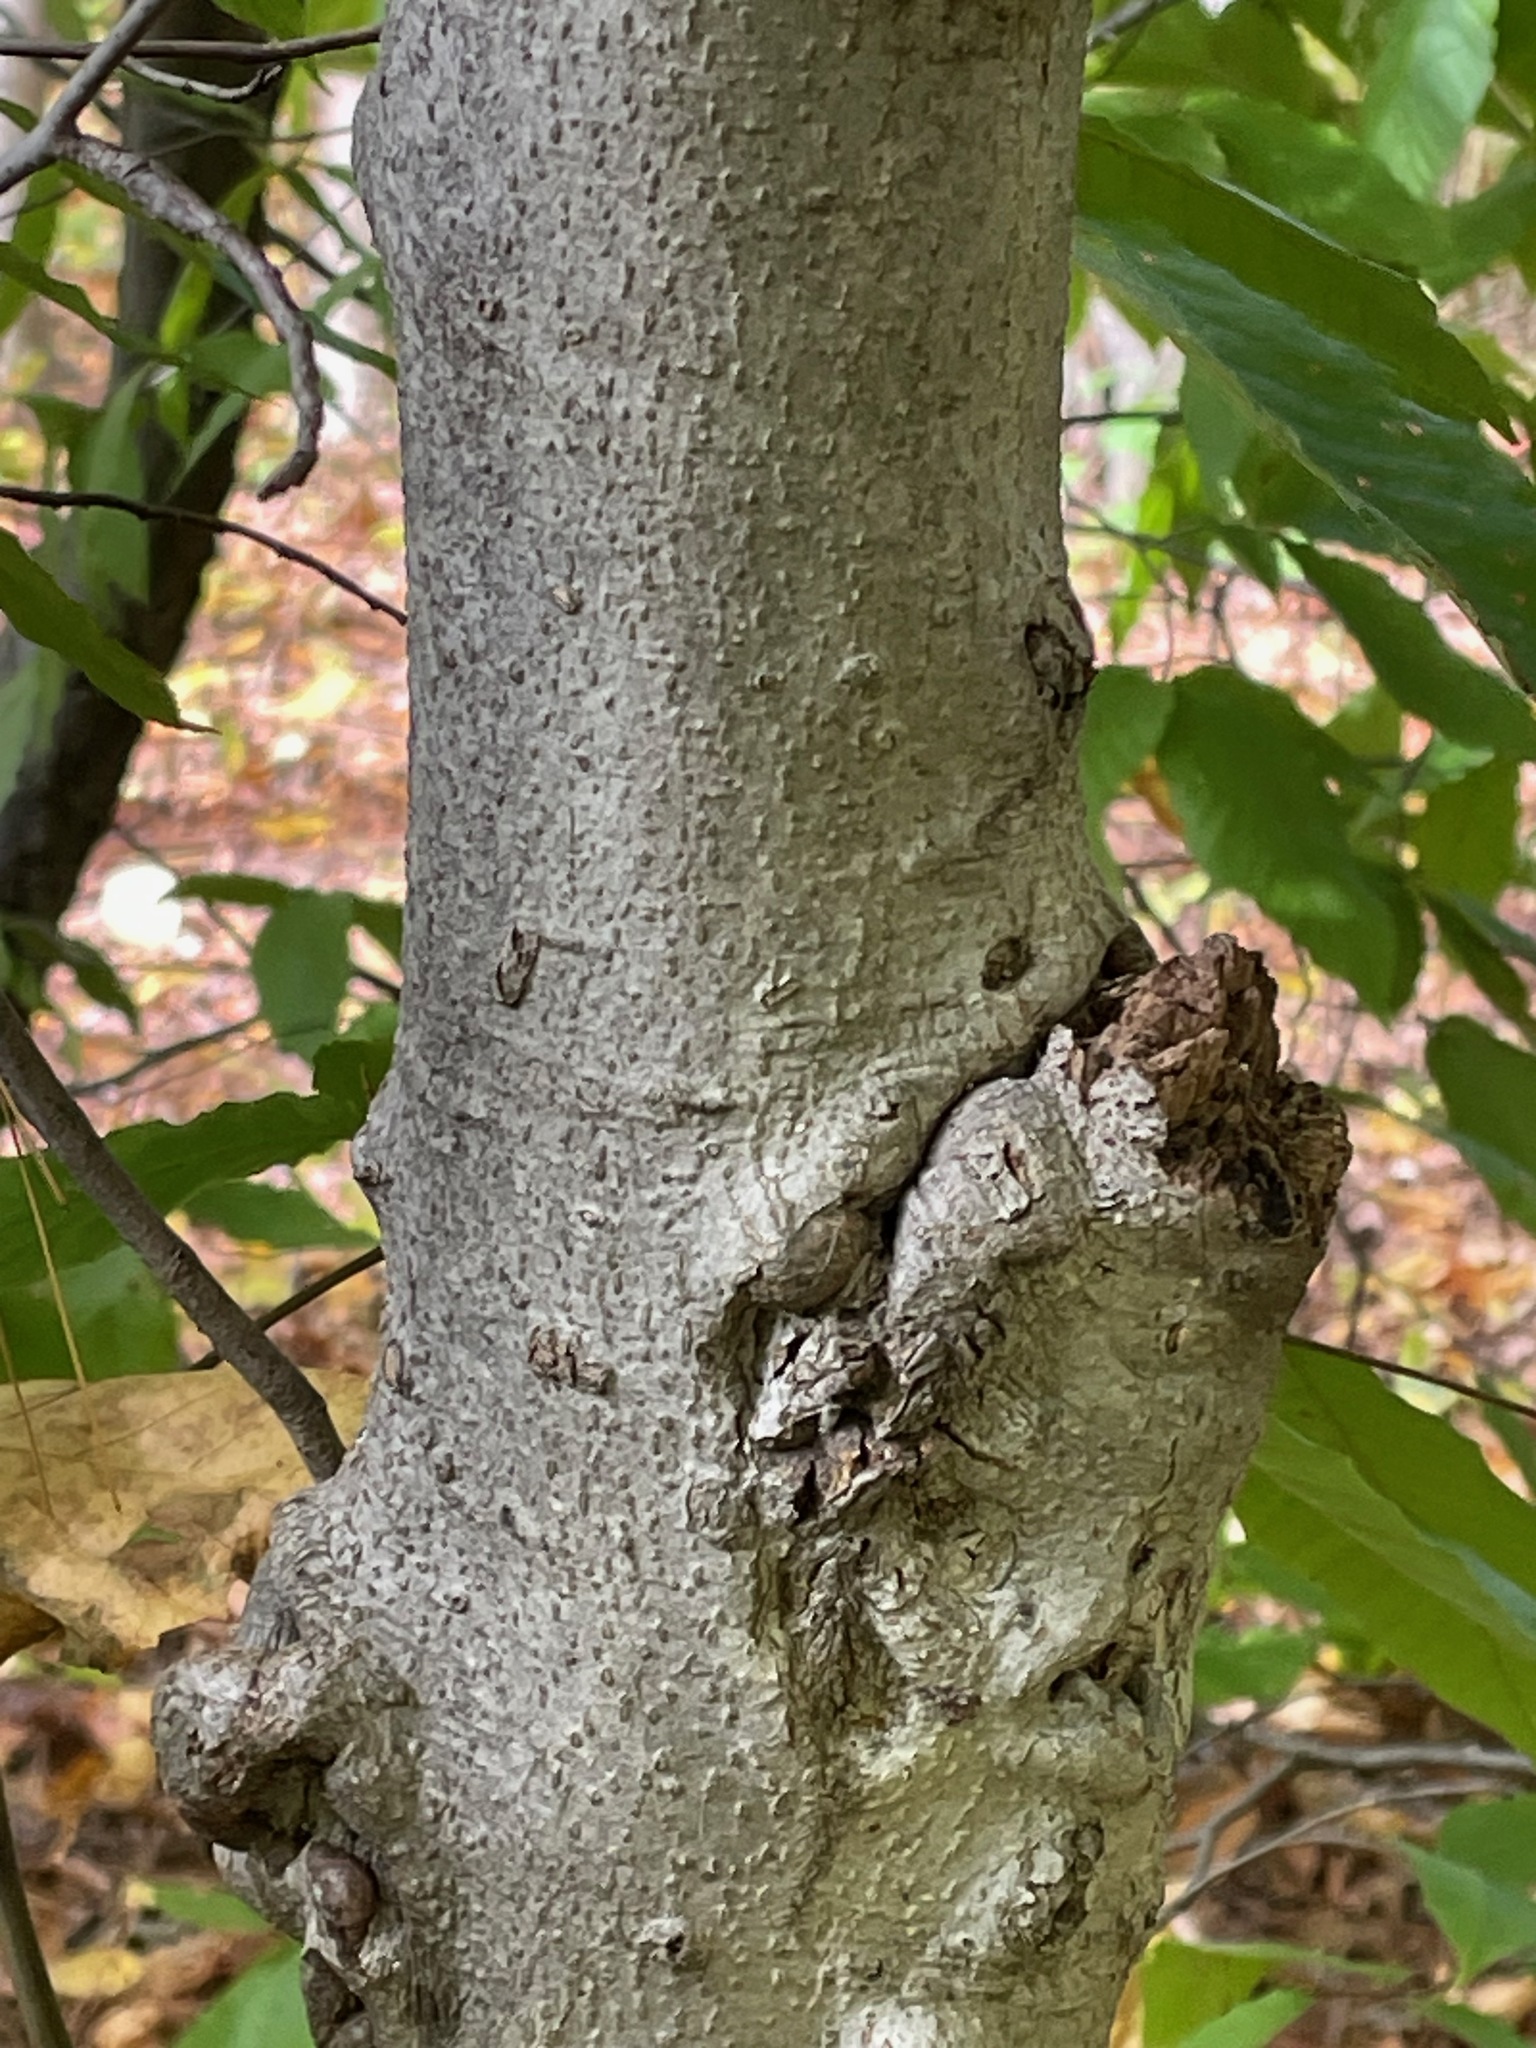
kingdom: Plantae
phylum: Tracheophyta
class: Magnoliopsida
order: Fagales
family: Fagaceae
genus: Fagus
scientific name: Fagus grandifolia
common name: American beech
